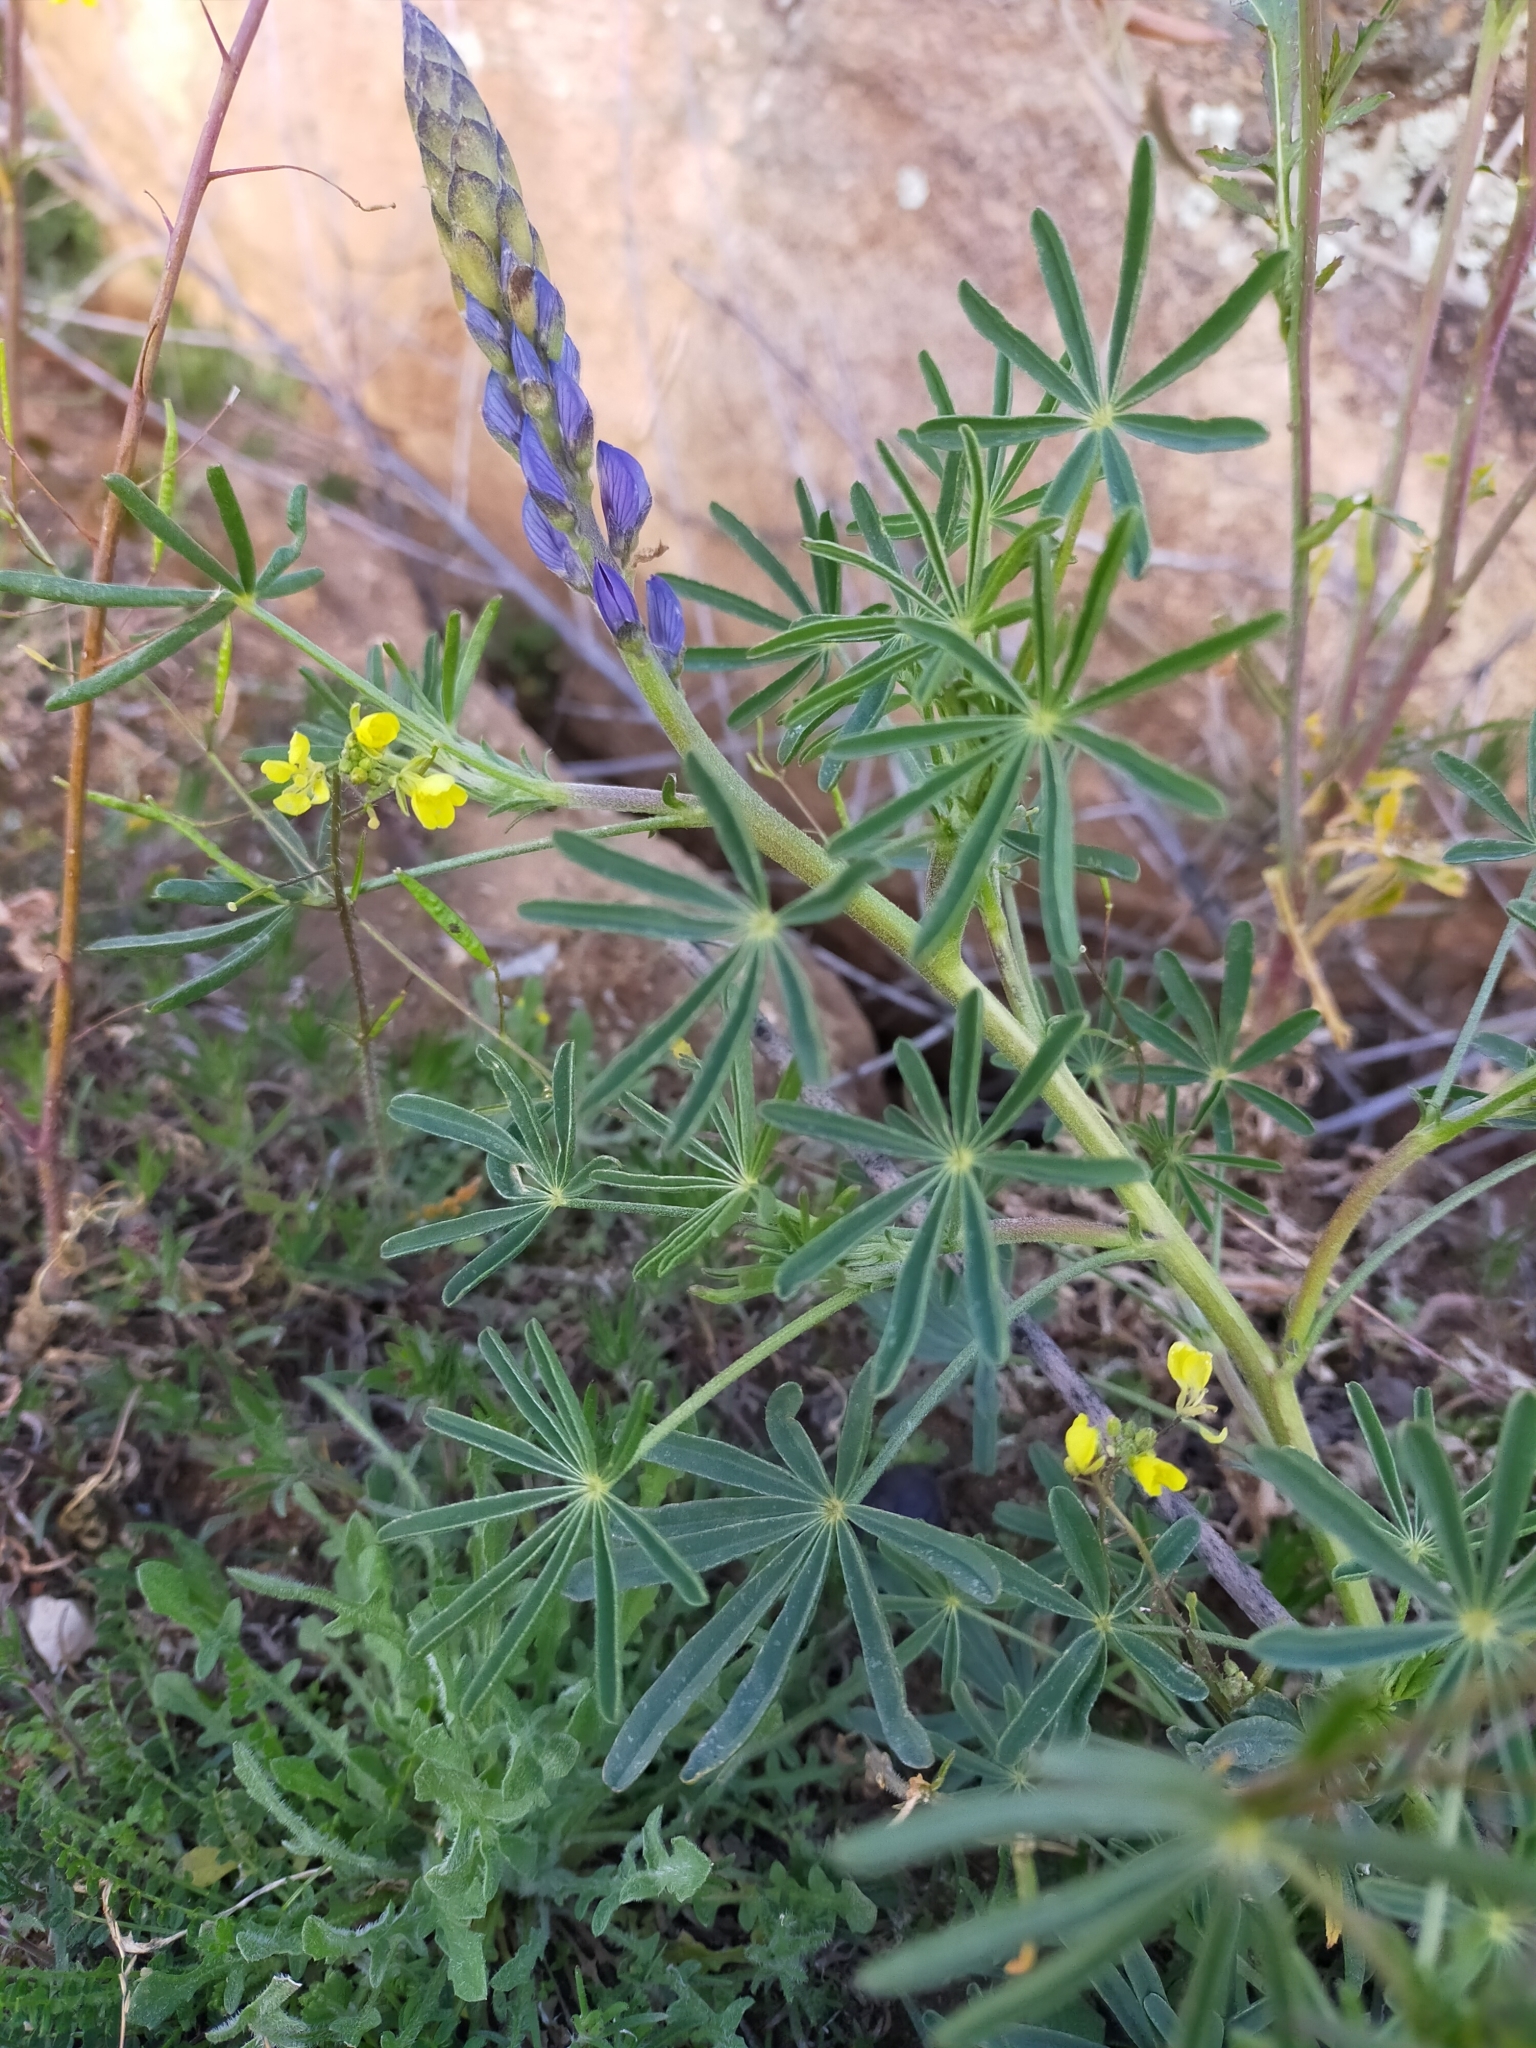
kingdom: Plantae
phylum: Tracheophyta
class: Magnoliopsida
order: Fabales
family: Fabaceae
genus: Lupinus
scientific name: Lupinus angustifolius
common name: Narrow-leaved lupin
